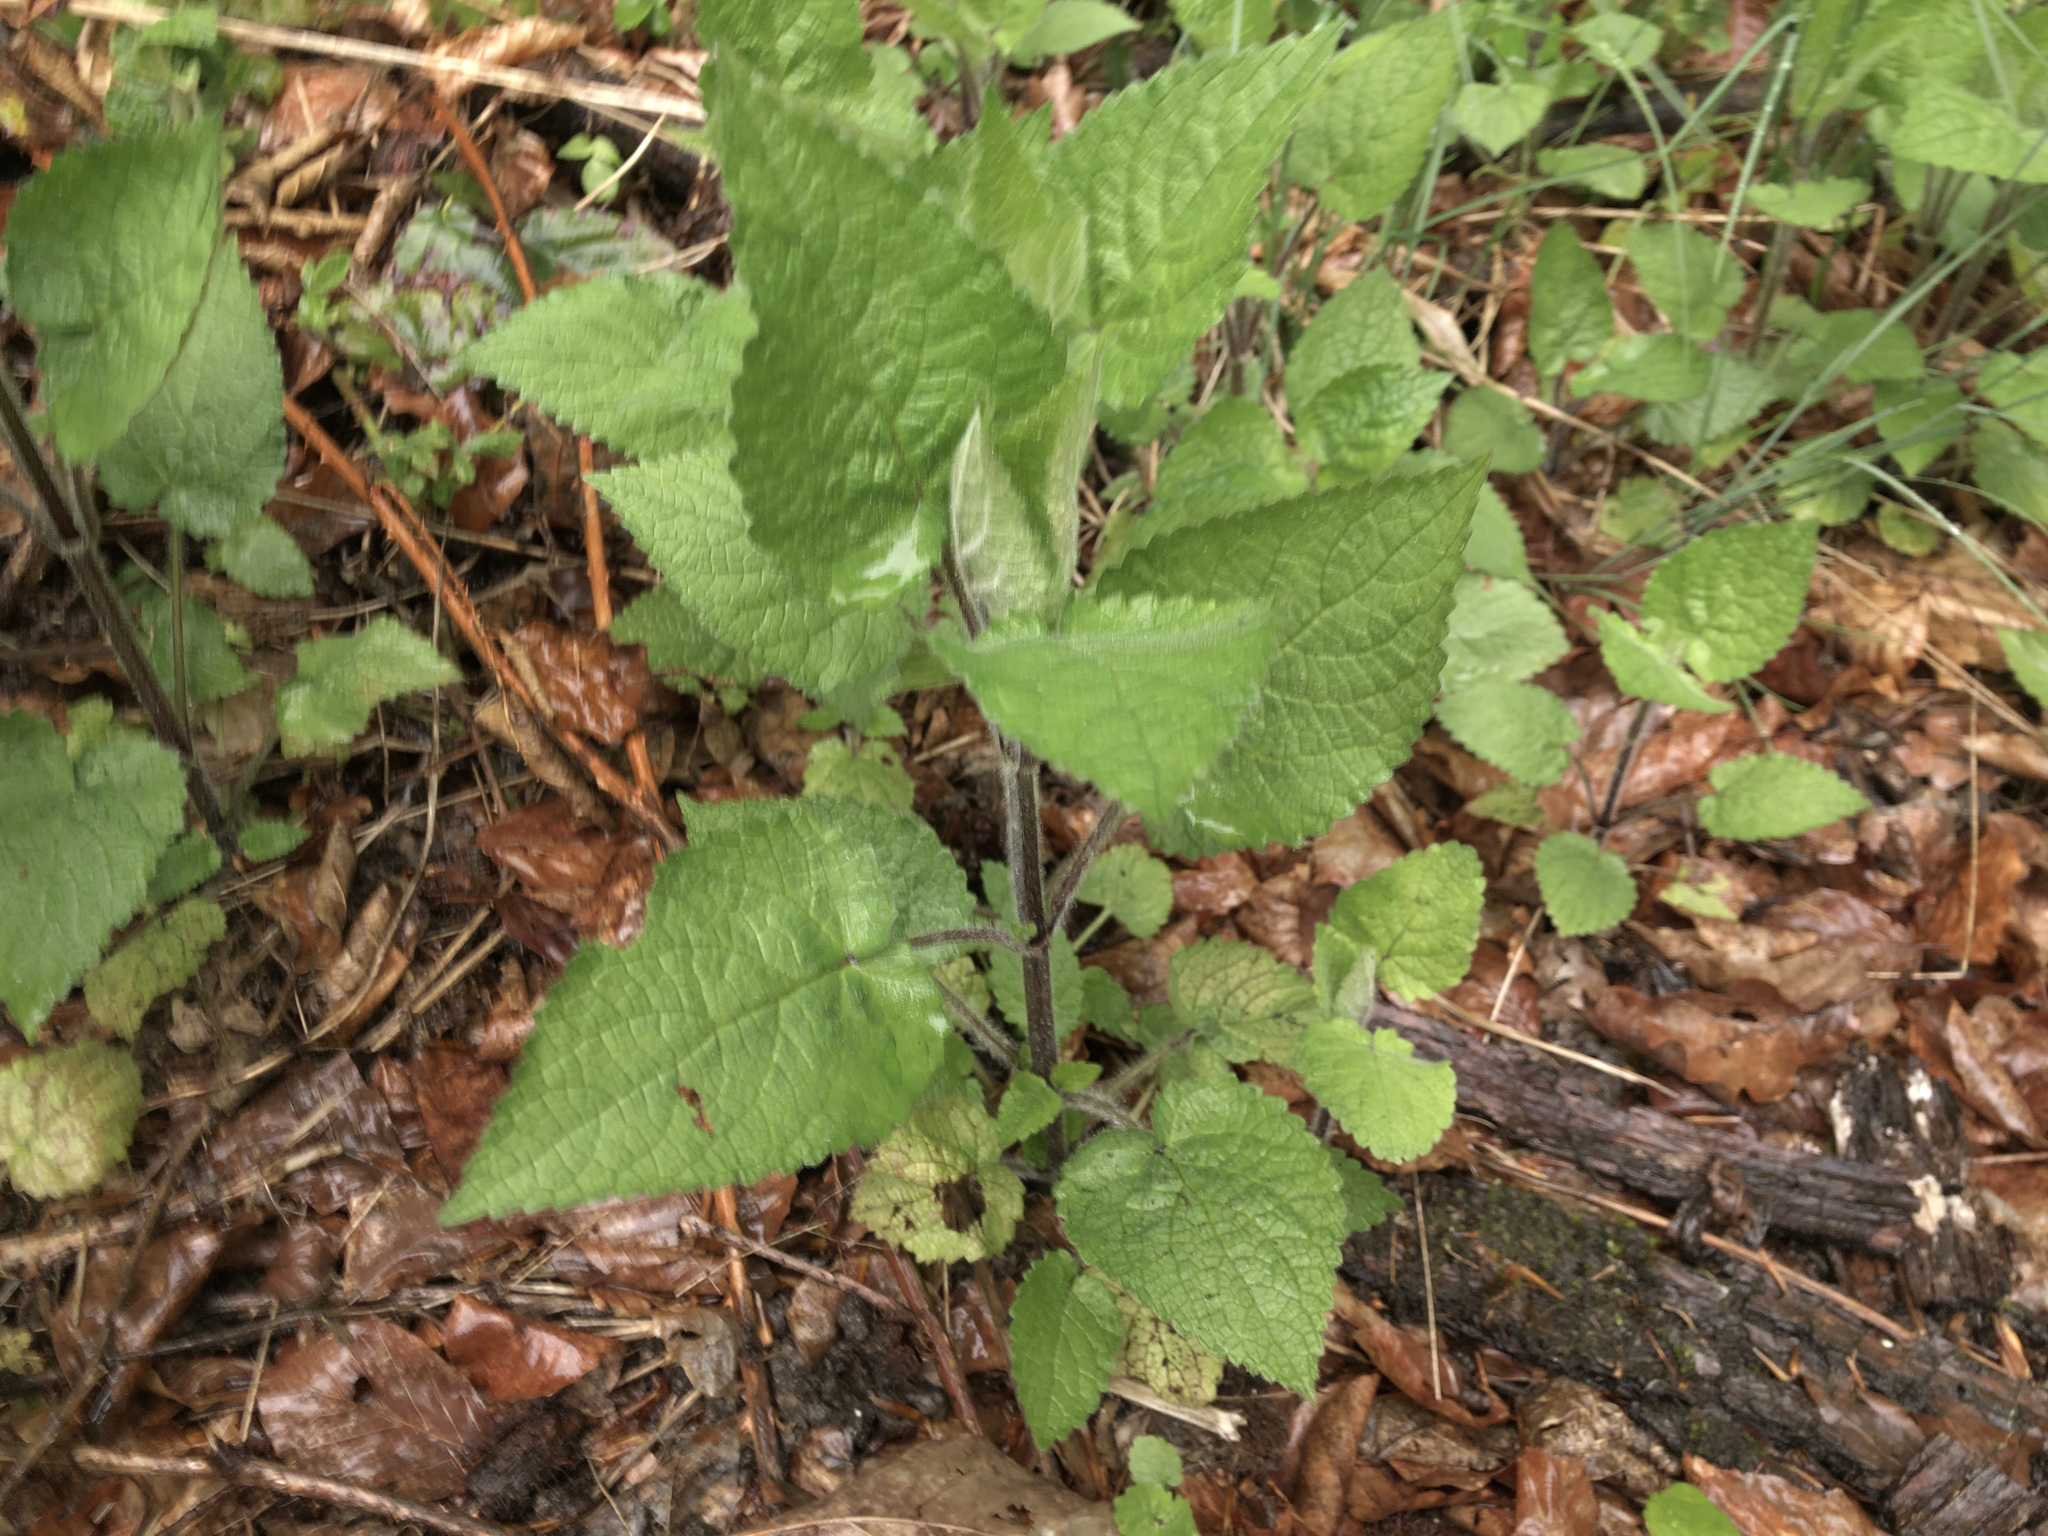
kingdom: Plantae
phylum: Tracheophyta
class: Magnoliopsida
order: Lamiales
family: Lamiaceae
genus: Stachys
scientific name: Stachys sylvatica
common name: Hedge woundwort
